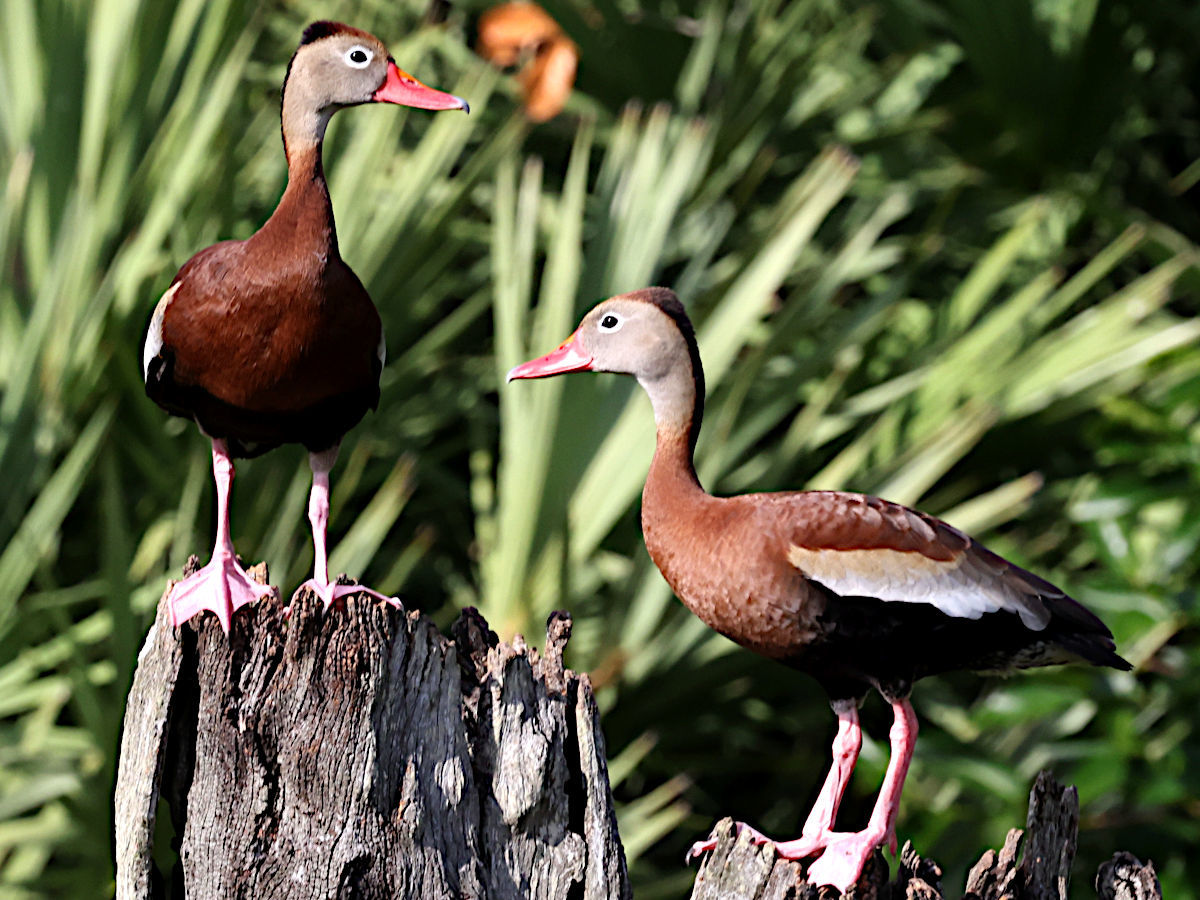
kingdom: Animalia
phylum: Chordata
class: Aves
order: Anseriformes
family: Anatidae
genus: Dendrocygna
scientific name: Dendrocygna autumnalis
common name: Black-bellied whistling duck
